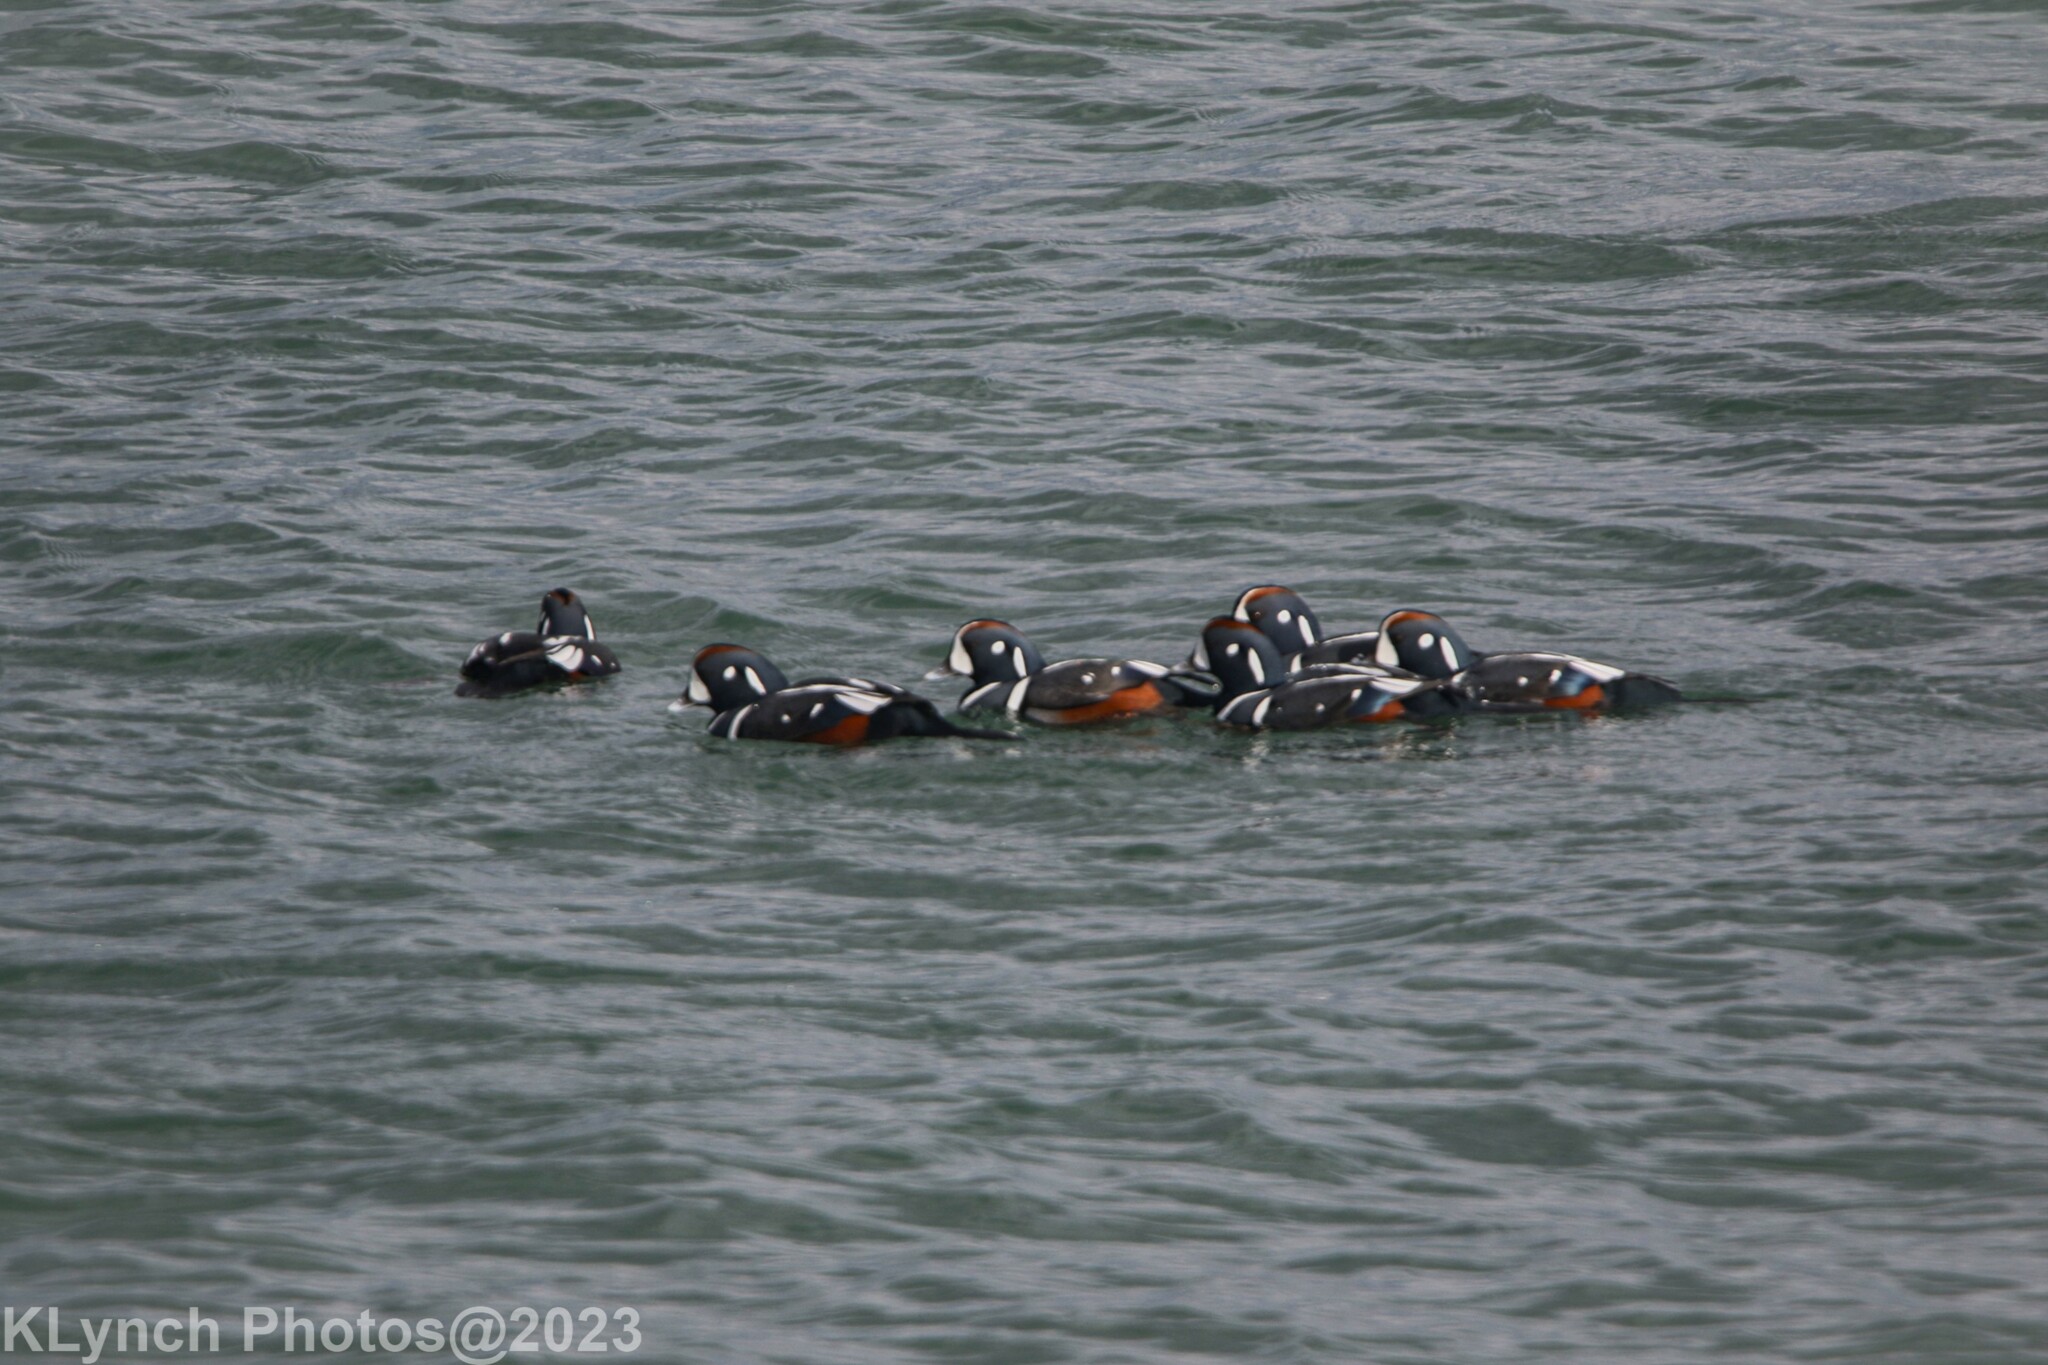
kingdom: Animalia
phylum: Chordata
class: Aves
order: Anseriformes
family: Anatidae
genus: Histrionicus
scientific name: Histrionicus histrionicus
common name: Harlequin duck
